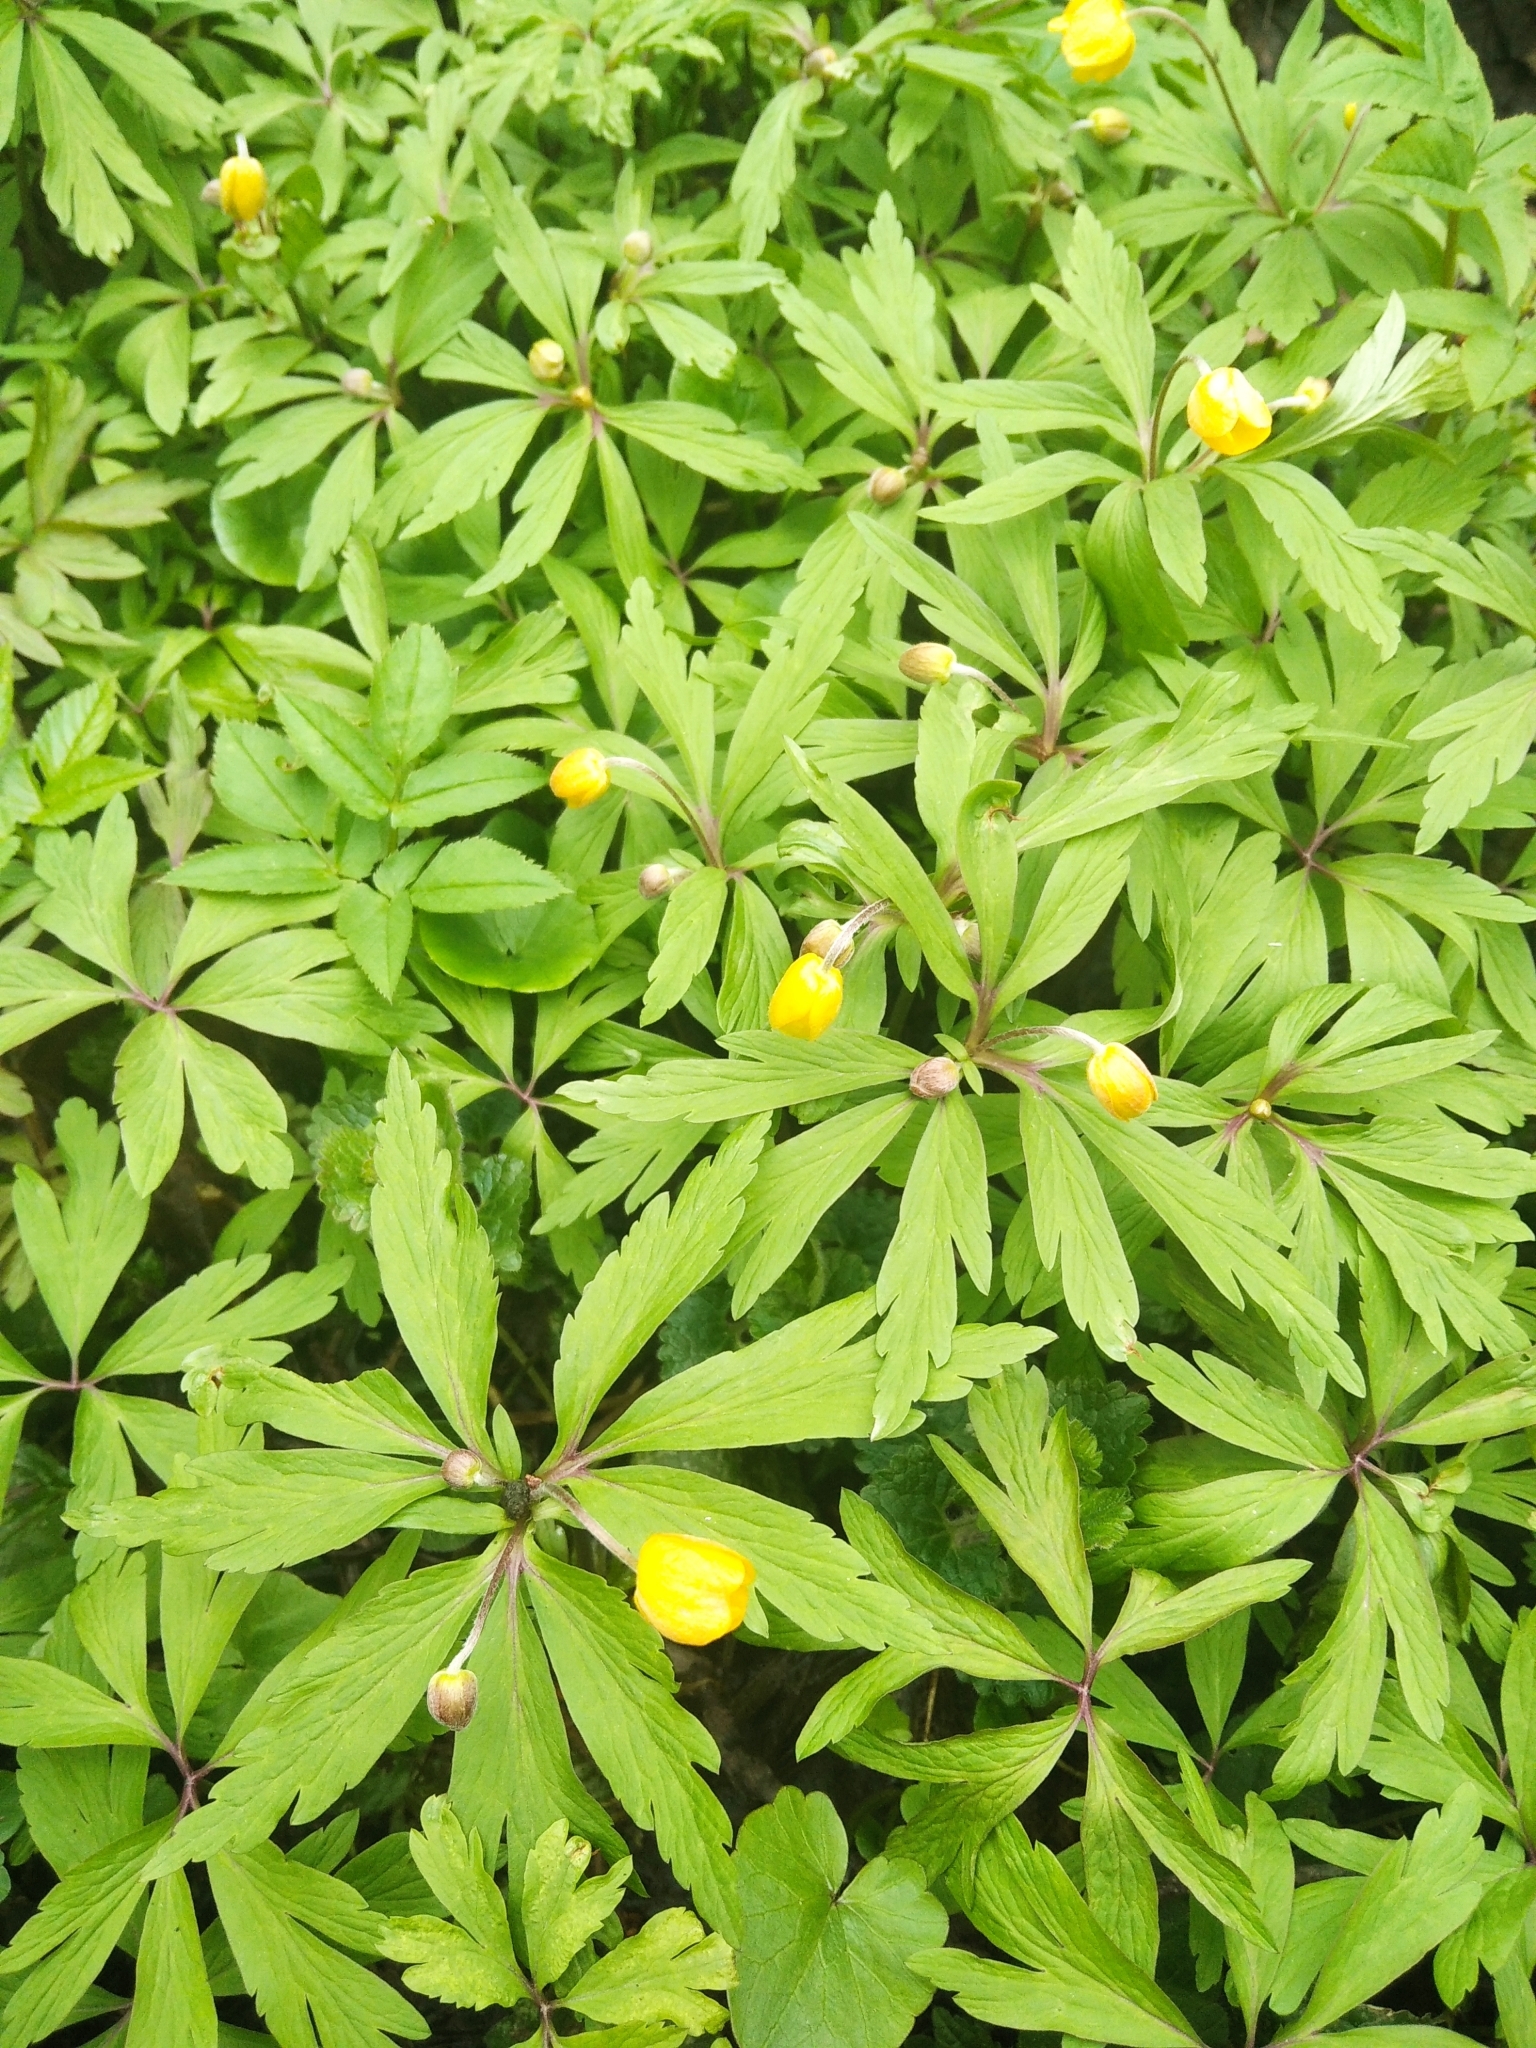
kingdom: Plantae
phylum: Tracheophyta
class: Magnoliopsida
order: Ranunculales
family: Ranunculaceae
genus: Anemone
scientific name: Anemone ranunculoides
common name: Yellow anemone
